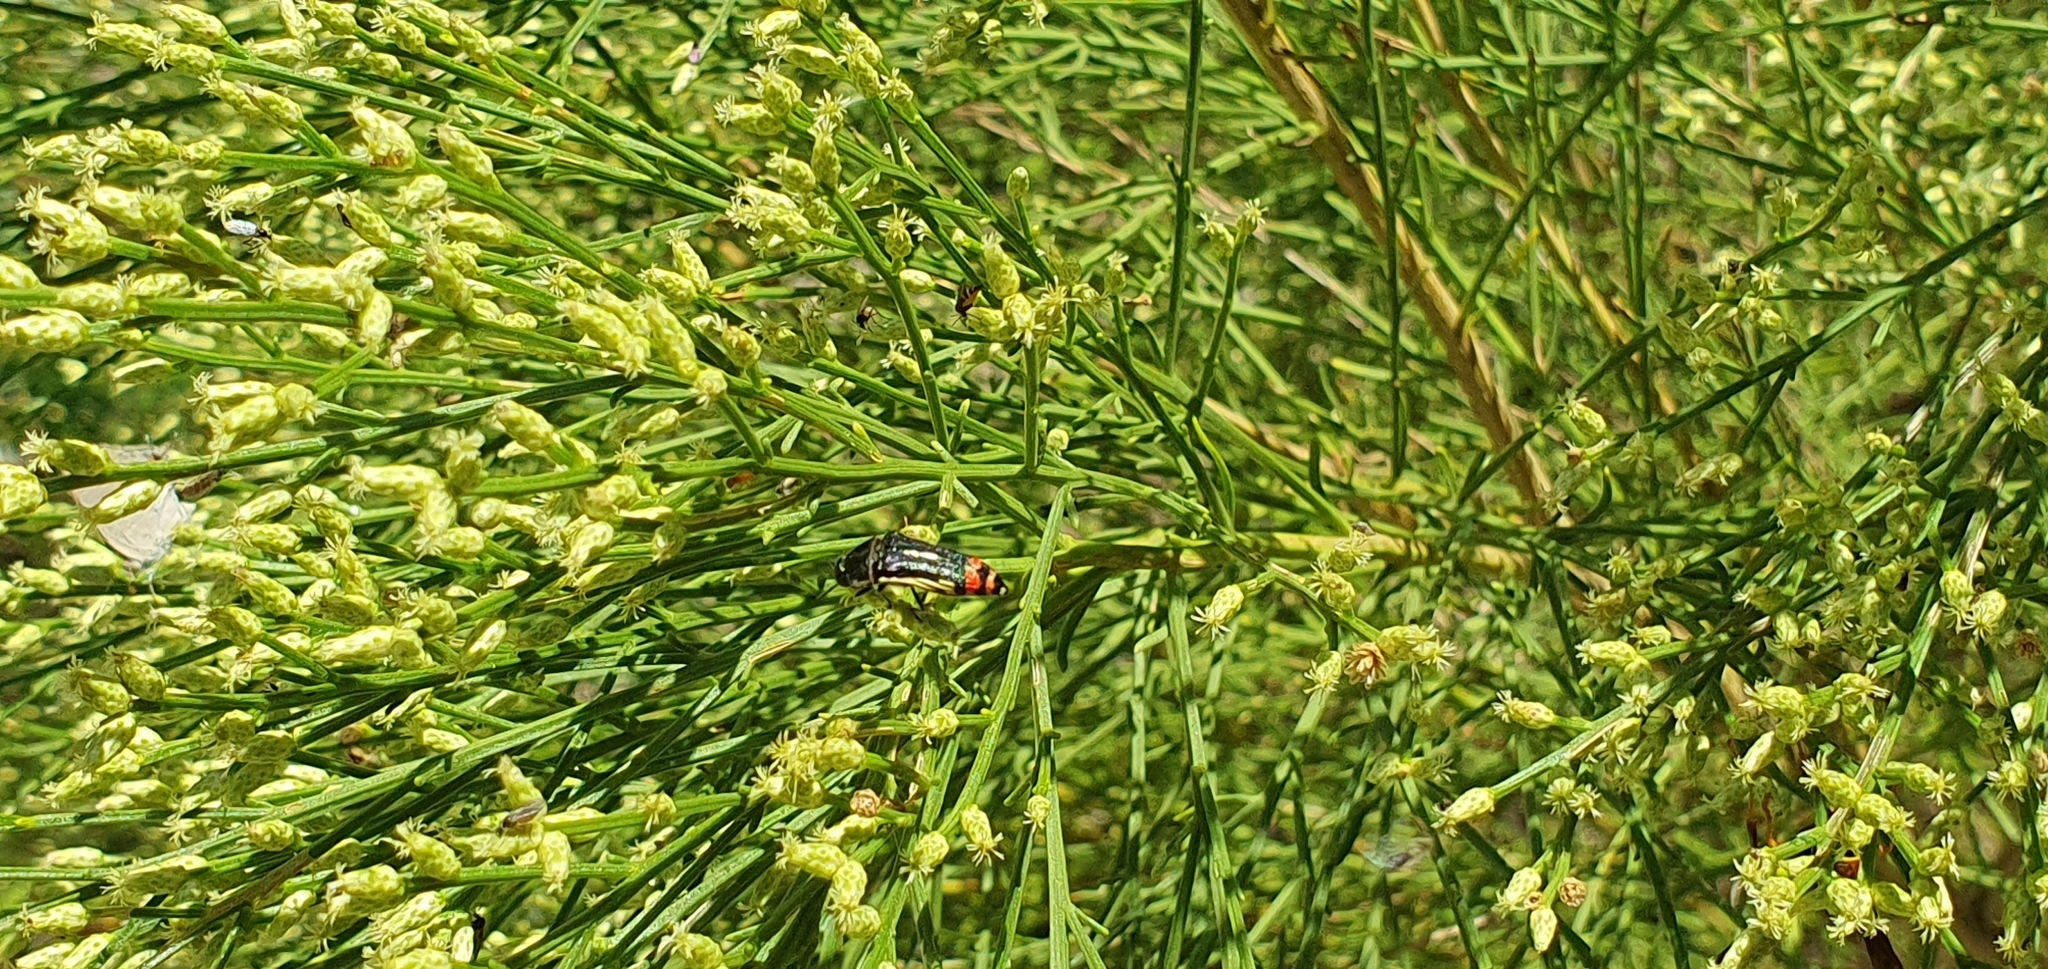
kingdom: Animalia
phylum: Arthropoda
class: Insecta
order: Coleoptera
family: Buprestidae
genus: Acmaeodera
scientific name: Acmaeodera flavomarginata
